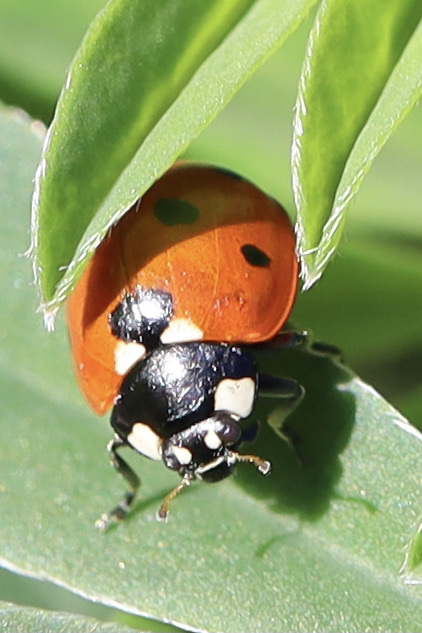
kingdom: Animalia
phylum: Arthropoda
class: Insecta
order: Coleoptera
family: Coccinellidae
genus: Coccinella
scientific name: Coccinella septempunctata
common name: Sevenspotted lady beetle
